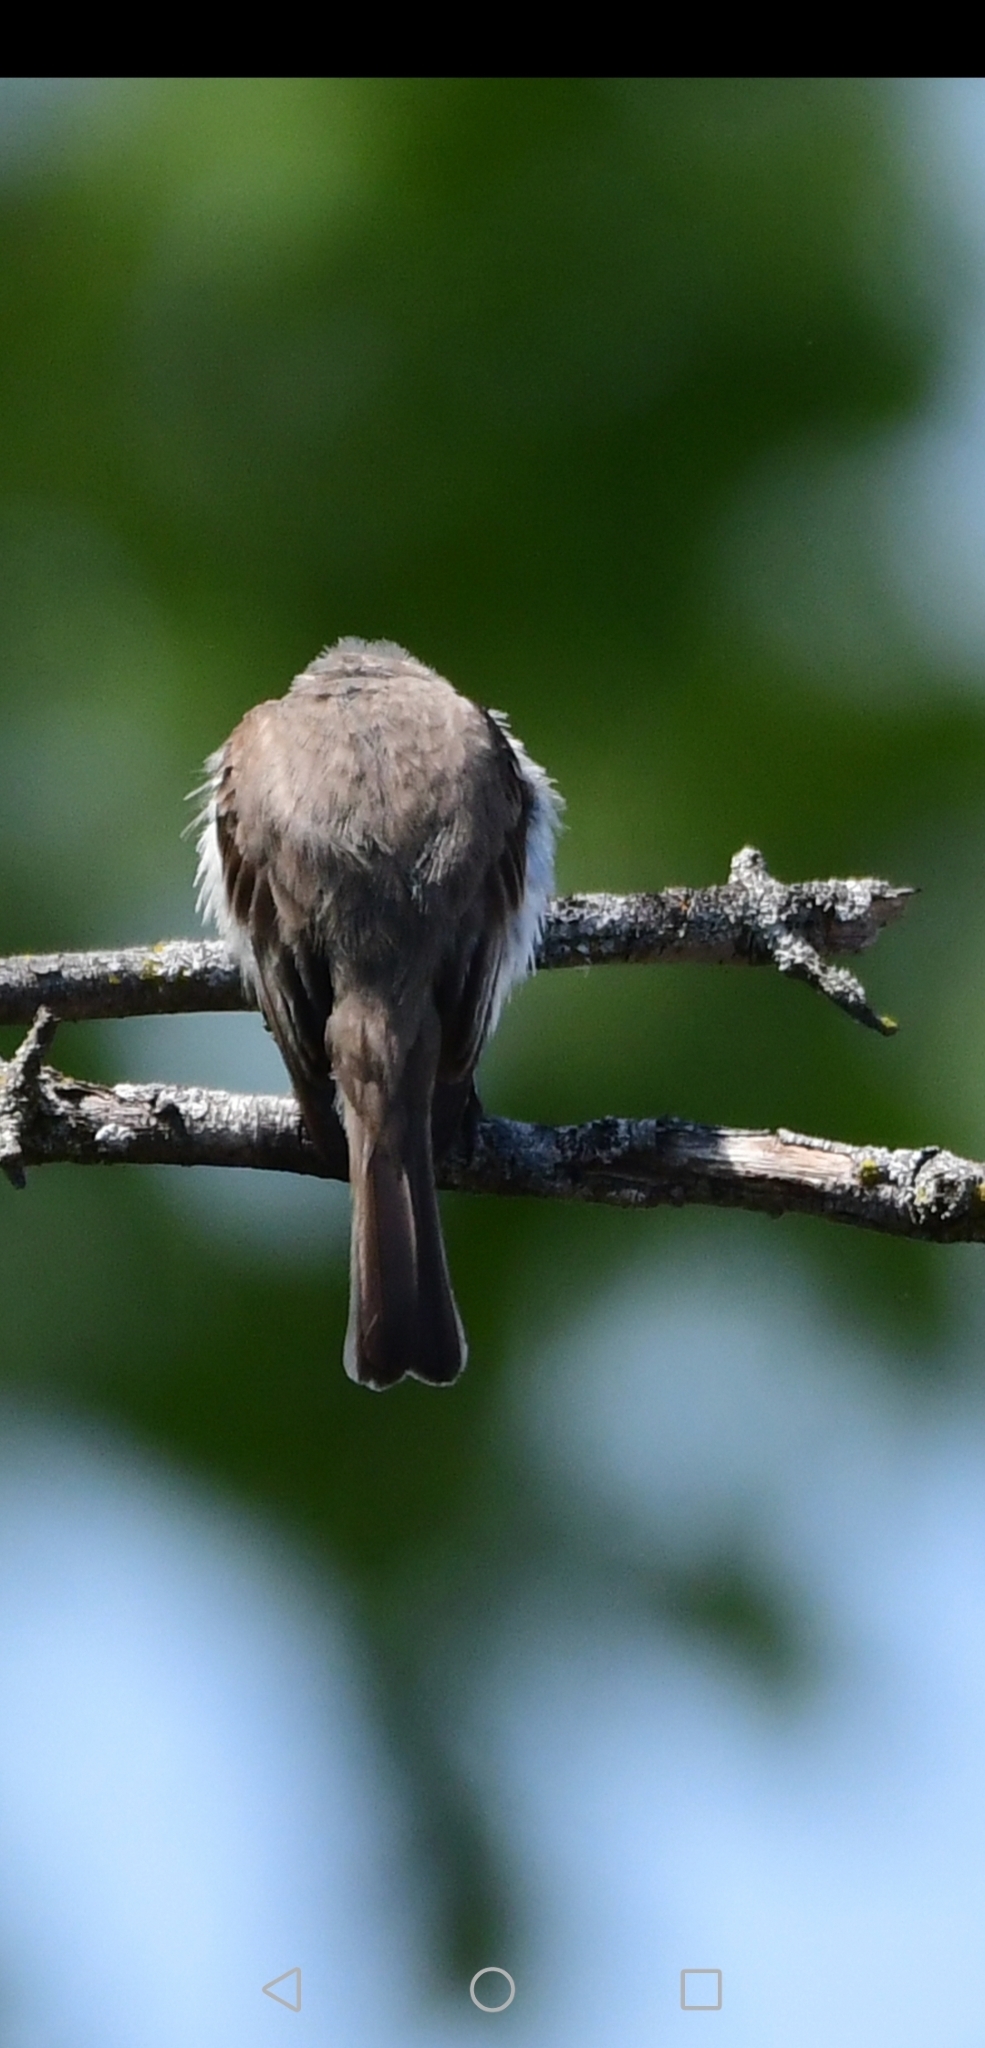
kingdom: Animalia
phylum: Chordata
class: Aves
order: Passeriformes
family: Tyrannidae
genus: Sayornis
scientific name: Sayornis phoebe
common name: Eastern phoebe
